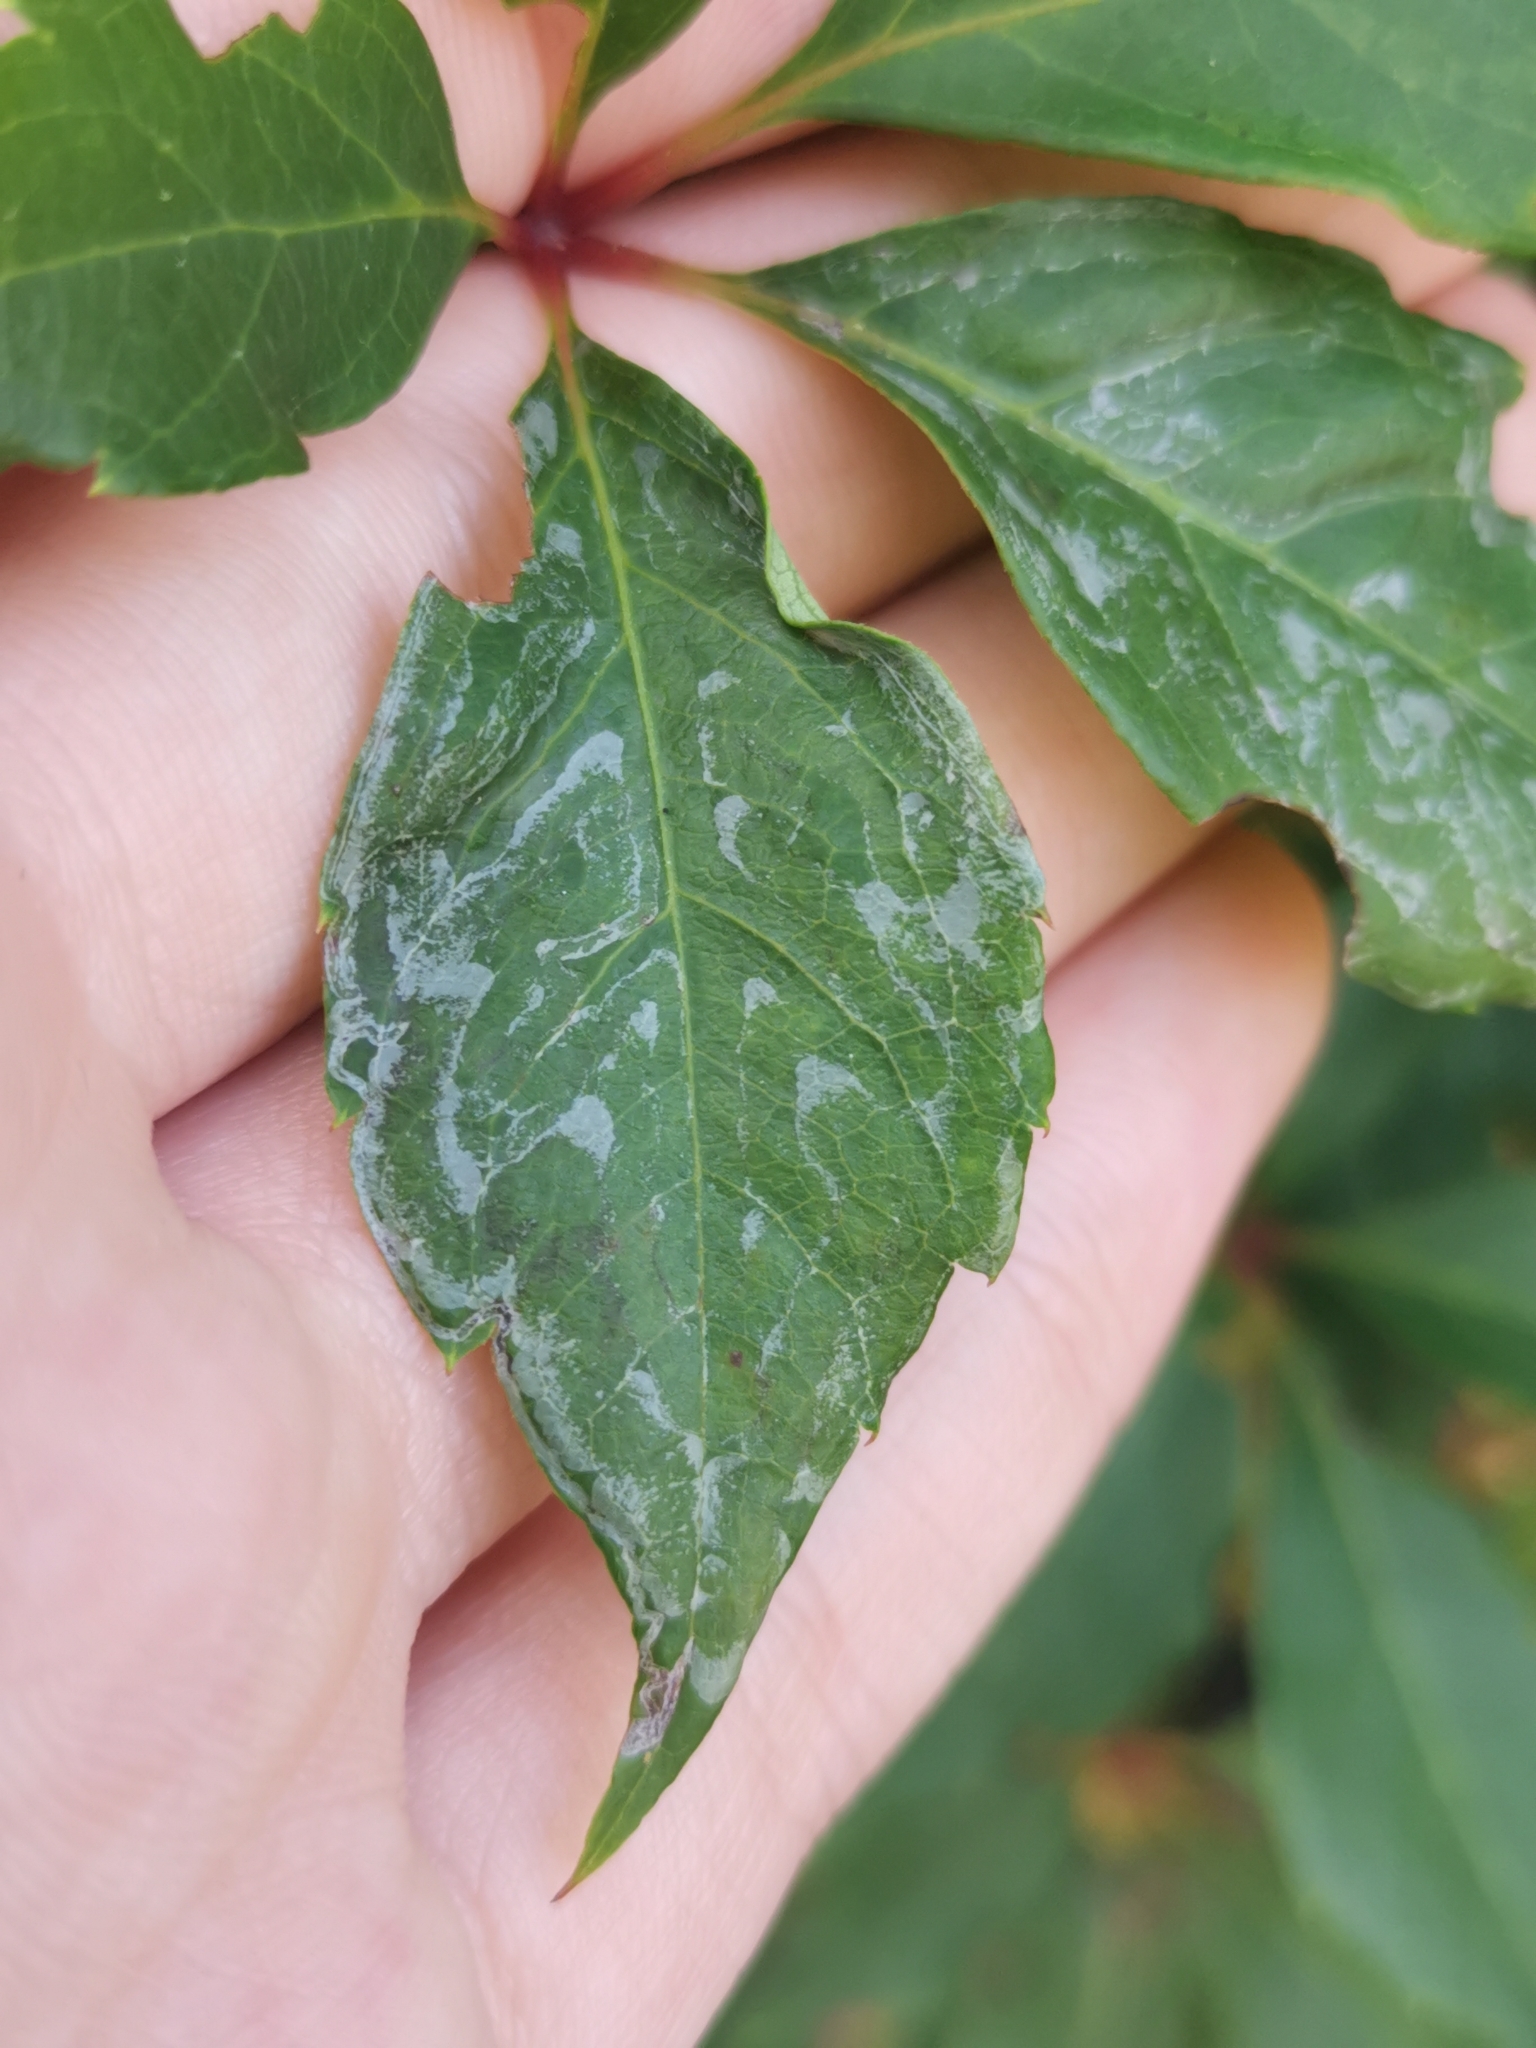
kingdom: Animalia
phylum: Arthropoda
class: Insecta
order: Lepidoptera
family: Gracillariidae
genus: Phyllocnistis
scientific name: Phyllocnistis vitegenella
